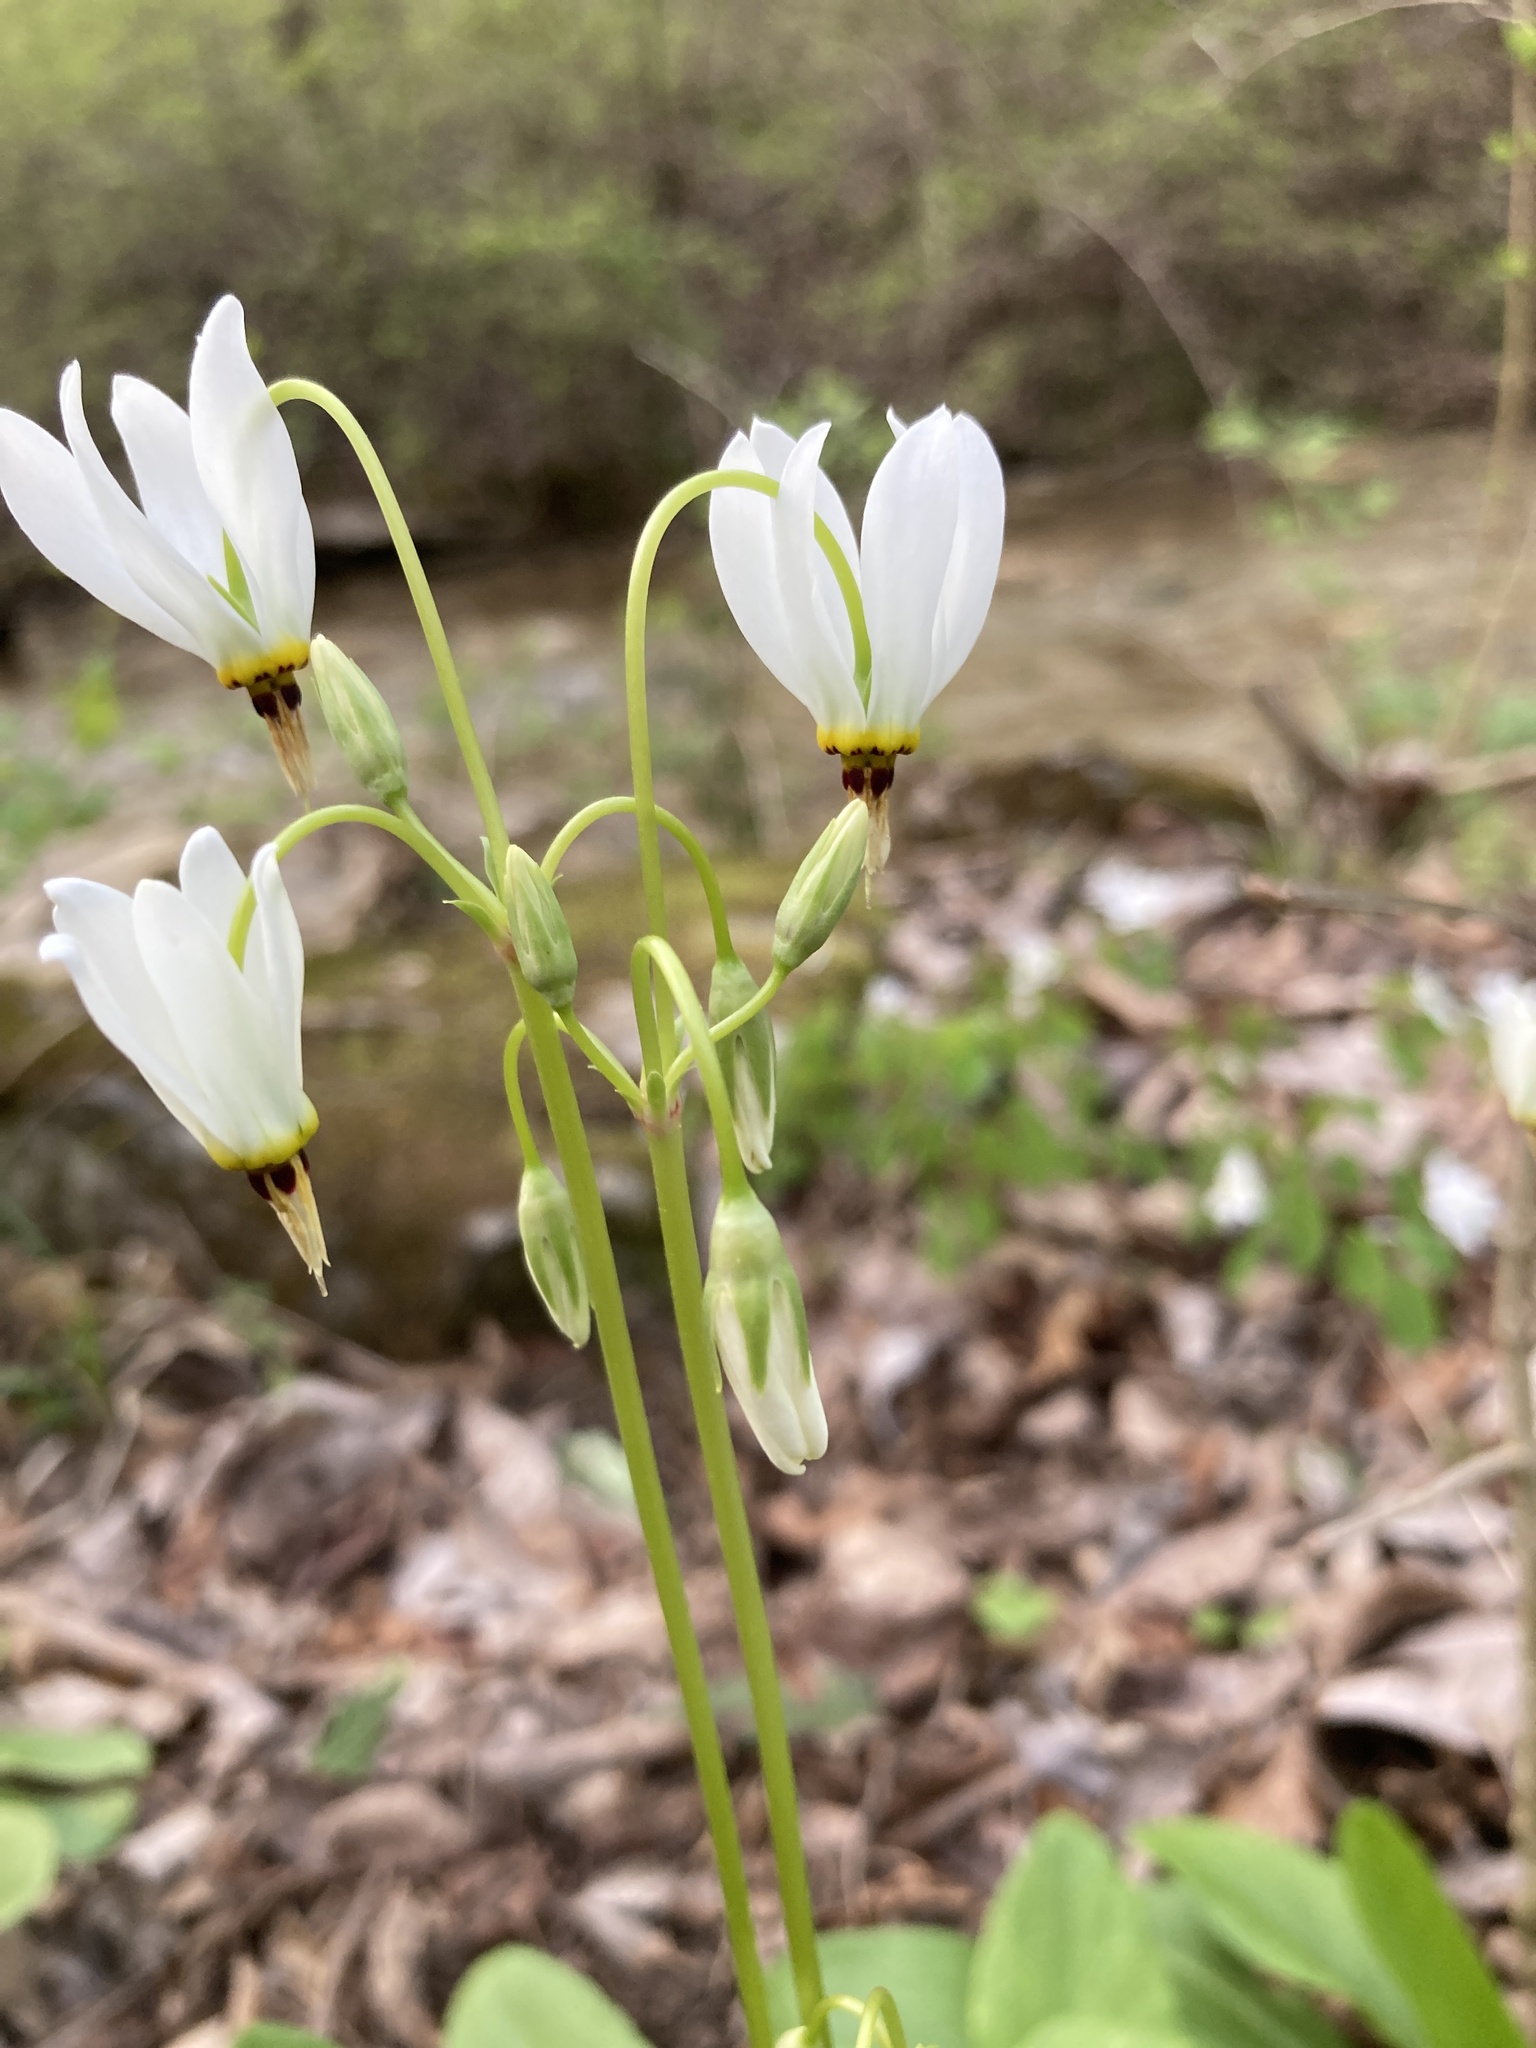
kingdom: Plantae
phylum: Tracheophyta
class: Magnoliopsida
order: Ericales
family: Primulaceae
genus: Dodecatheon
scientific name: Dodecatheon meadia
